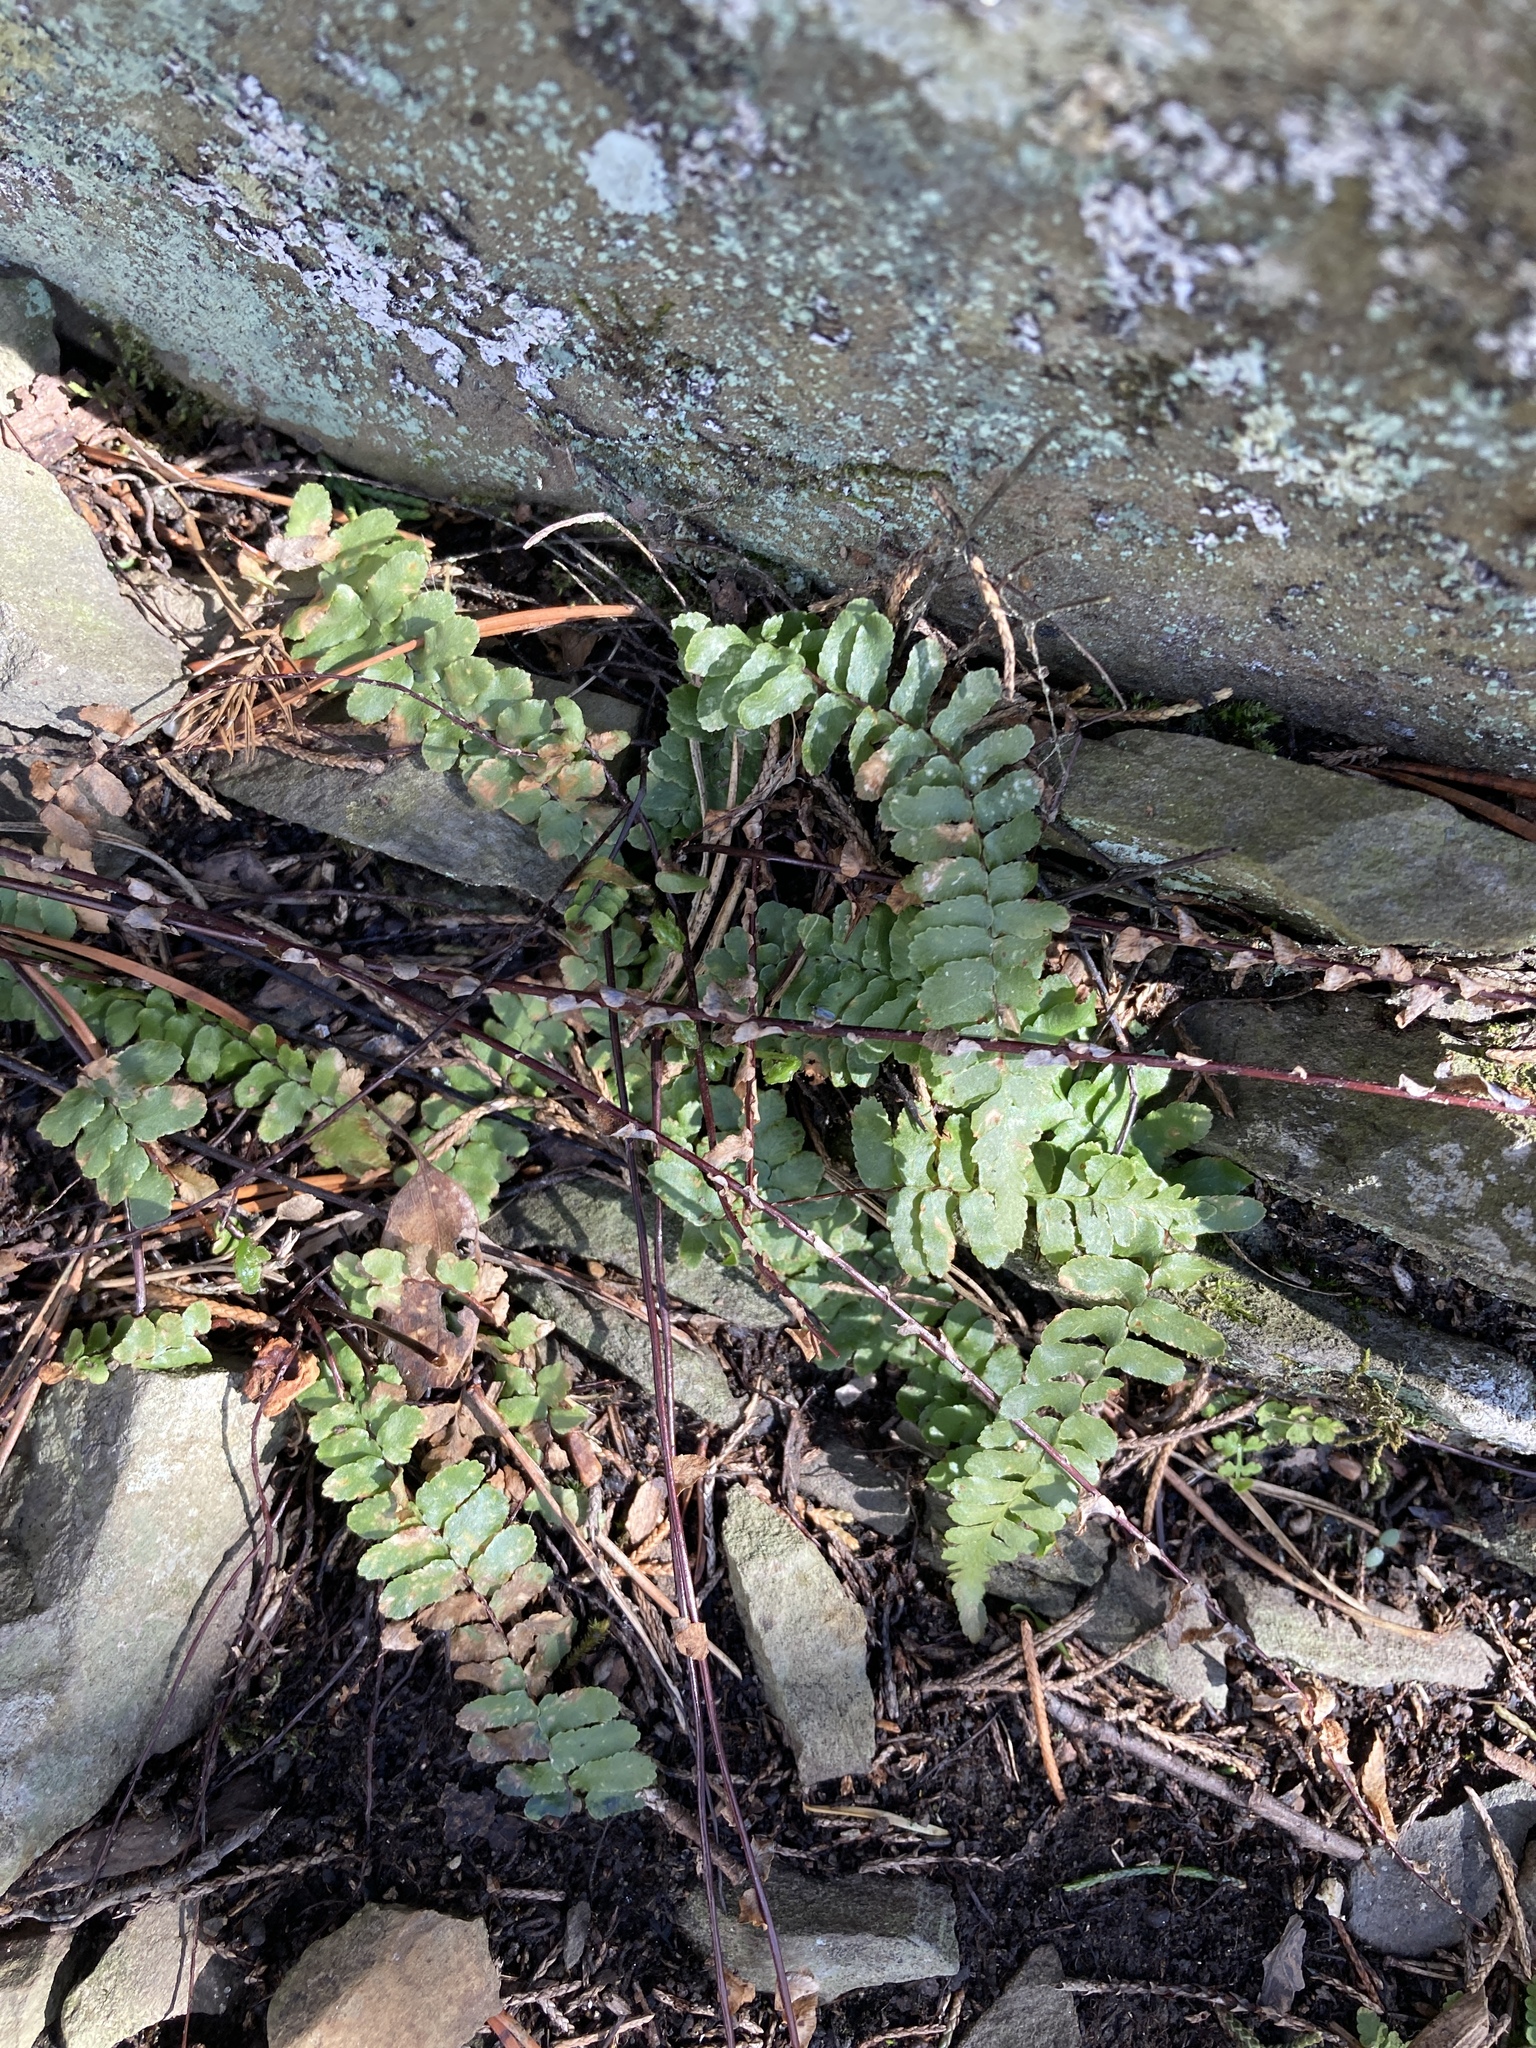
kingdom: Plantae
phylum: Tracheophyta
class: Polypodiopsida
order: Polypodiales
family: Aspleniaceae
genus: Asplenium
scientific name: Asplenium platyneuron
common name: Ebony spleenwort
